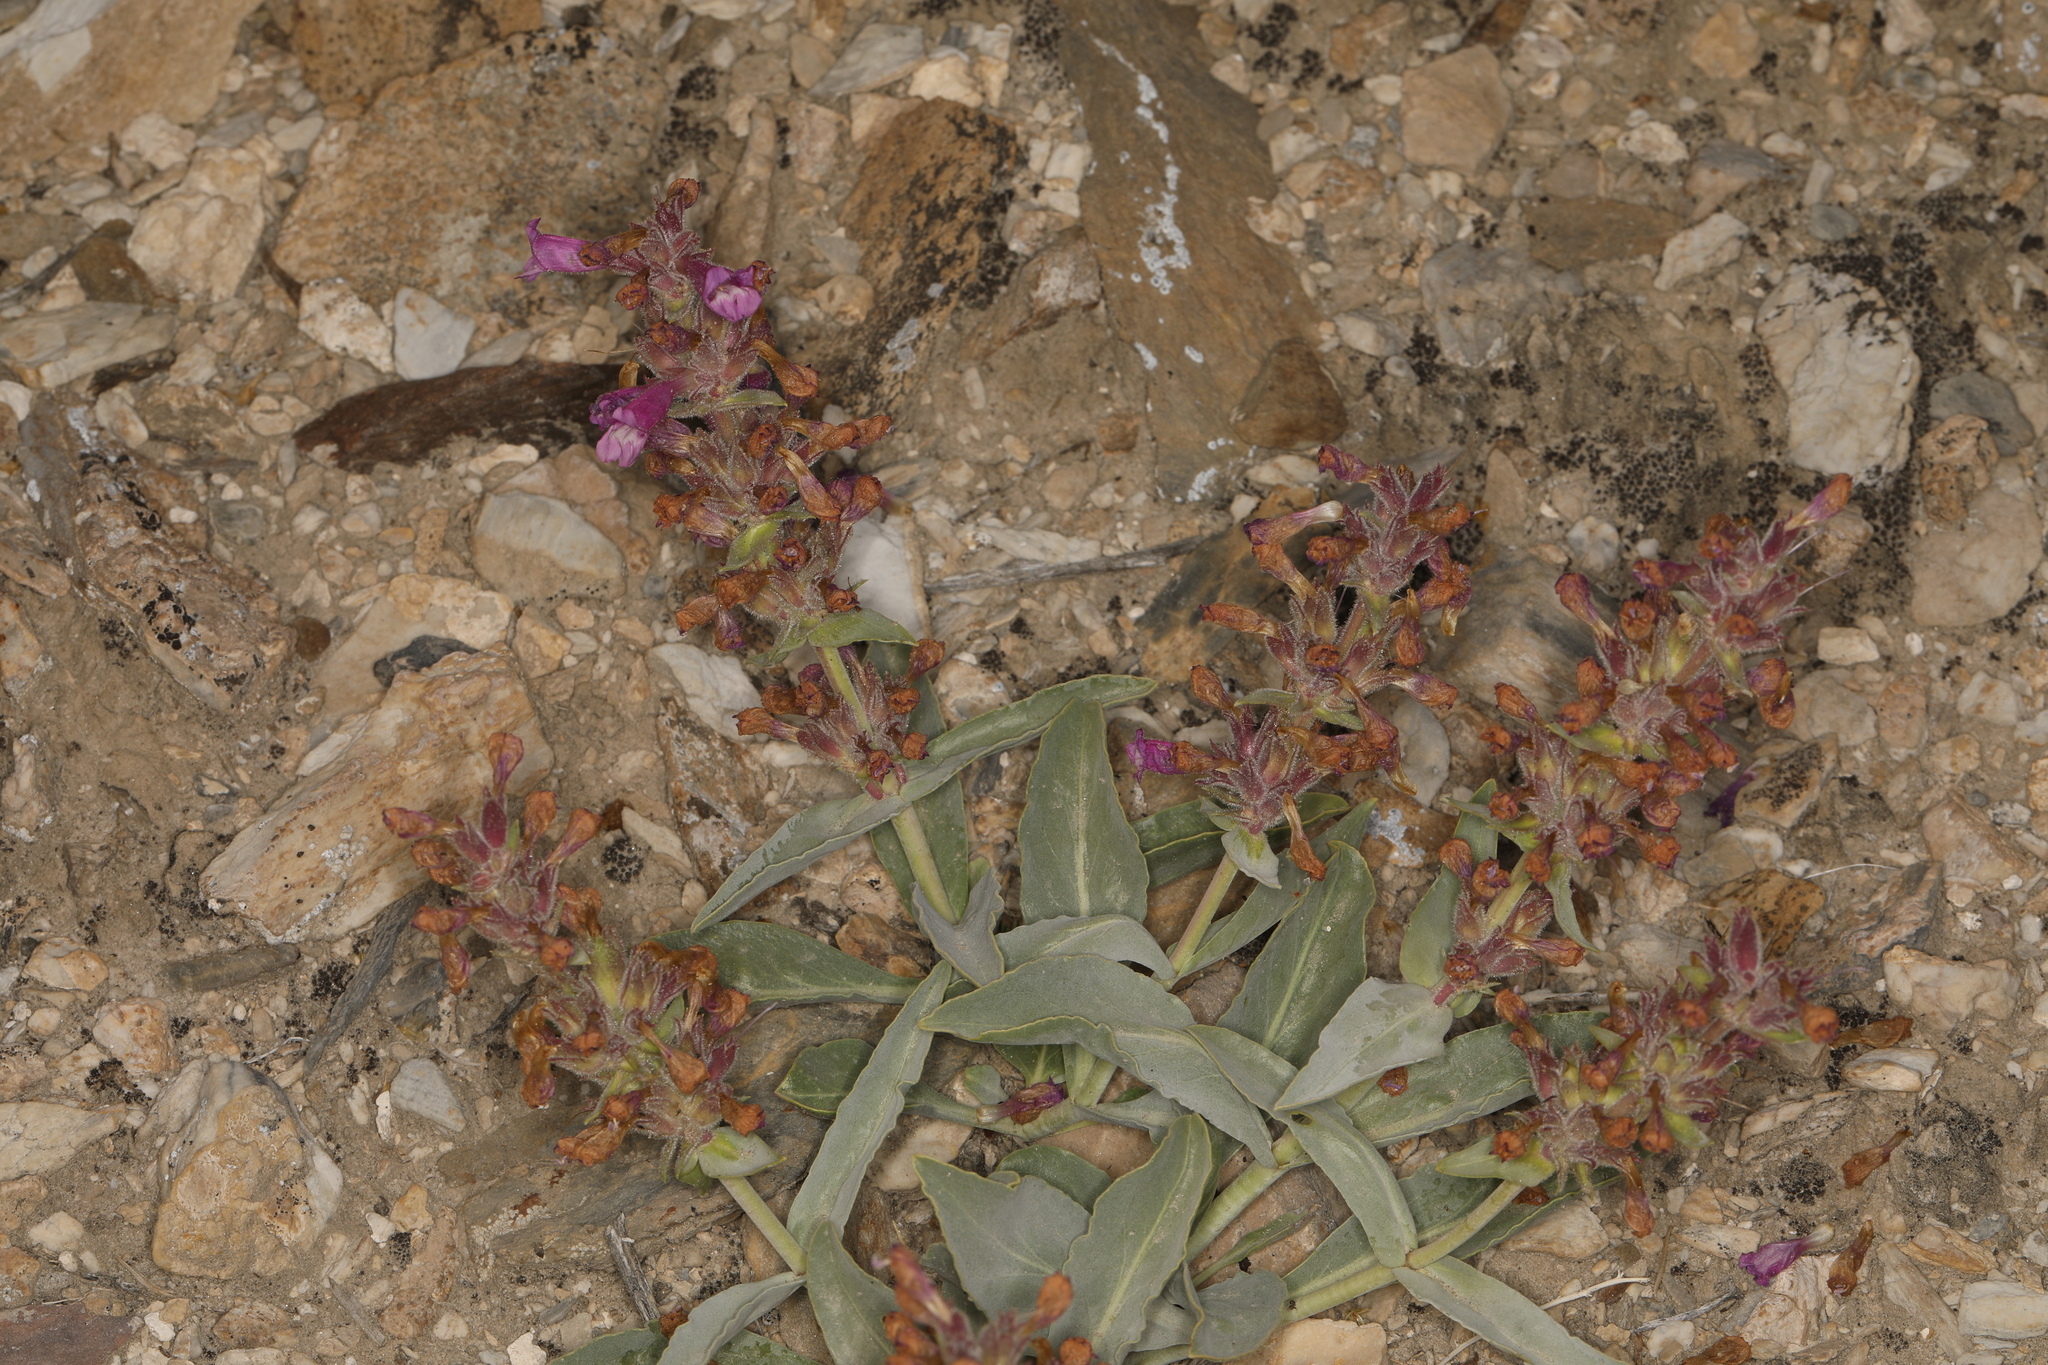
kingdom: Plantae
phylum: Tracheophyta
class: Magnoliopsida
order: Lamiales
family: Plantaginaceae
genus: Penstemon
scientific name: Penstemon monoensis
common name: Mono penstemon
